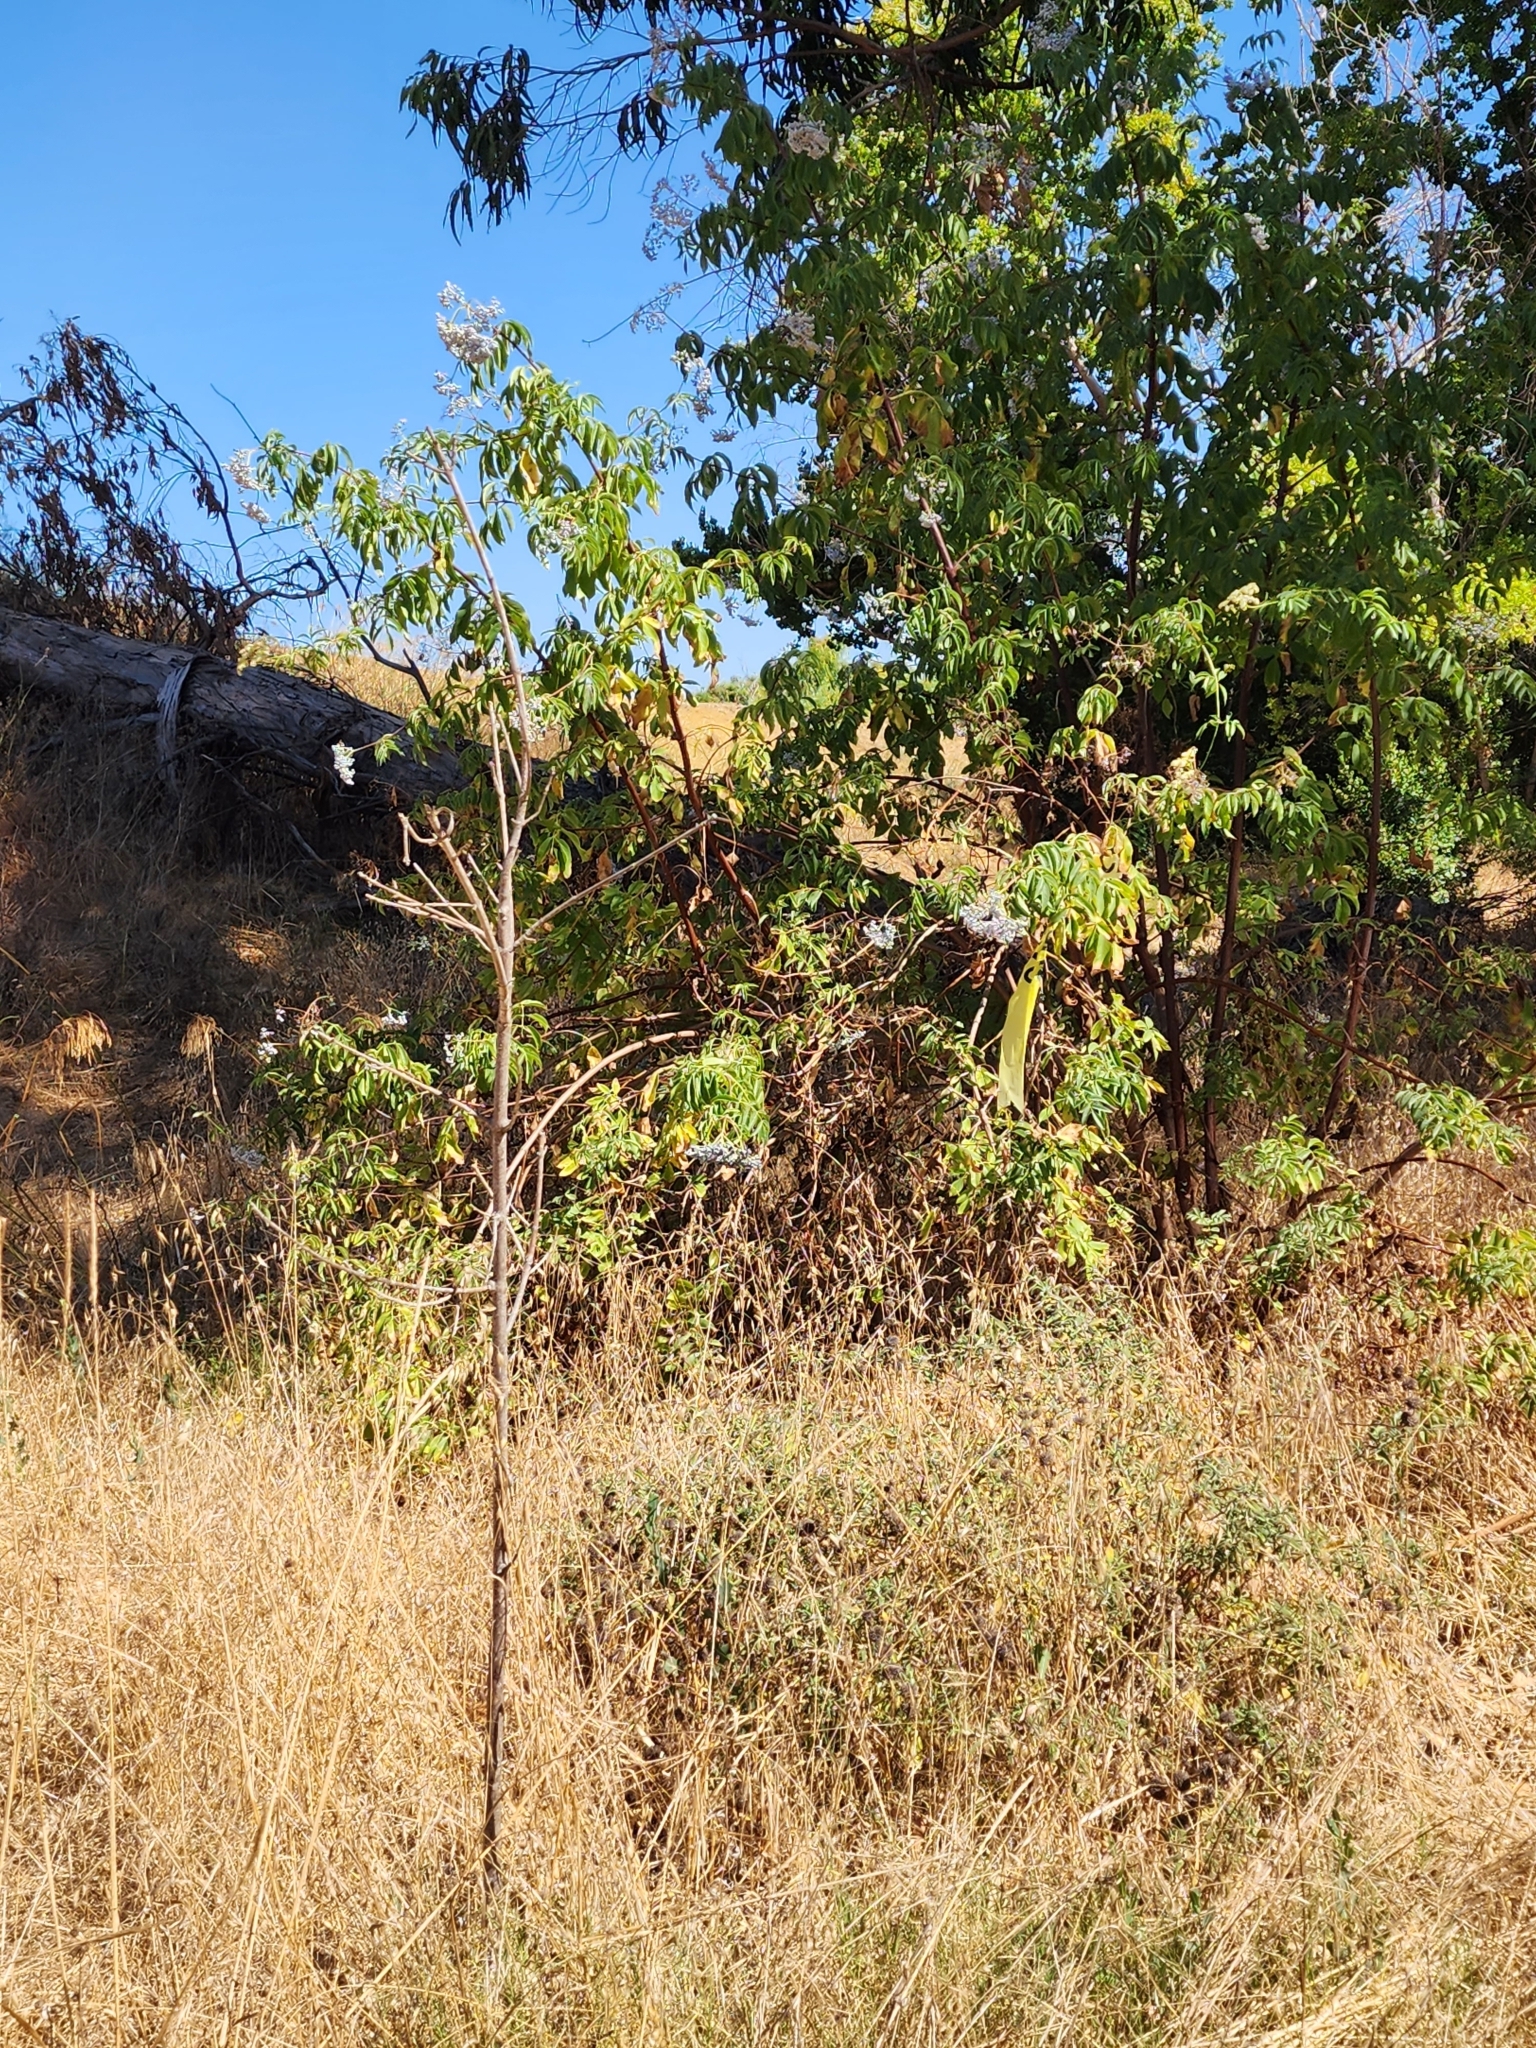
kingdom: Plantae
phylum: Tracheophyta
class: Magnoliopsida
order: Dipsacales
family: Viburnaceae
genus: Sambucus
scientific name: Sambucus cerulea
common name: Blue elder
